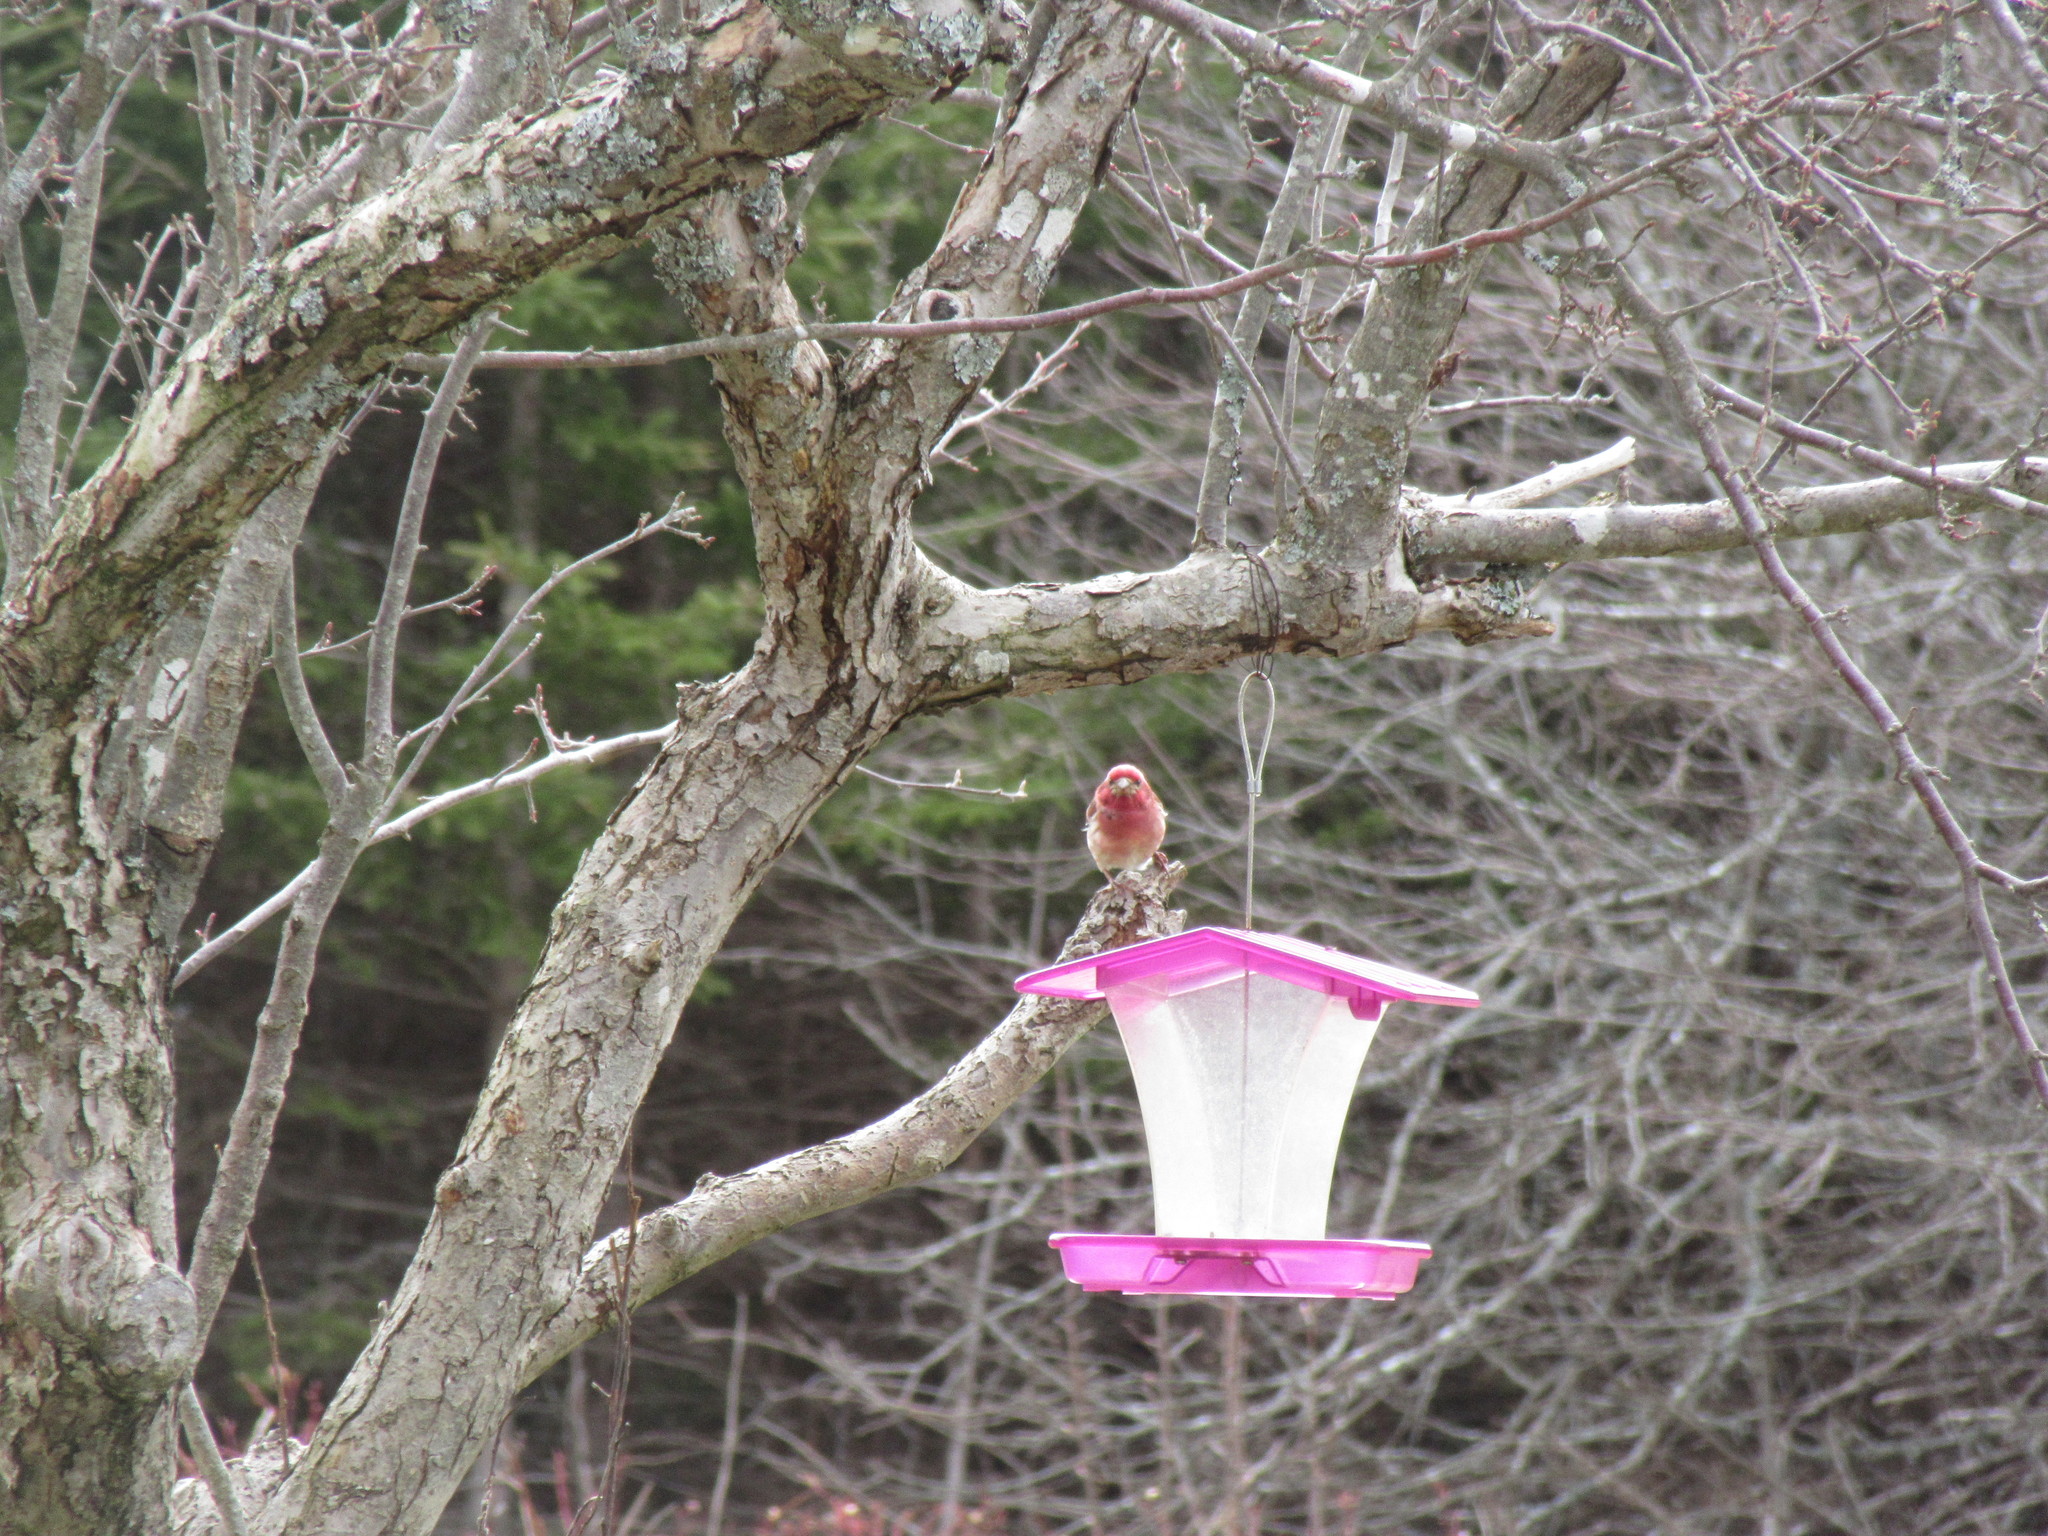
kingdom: Animalia
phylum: Chordata
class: Aves
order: Passeriformes
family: Fringillidae
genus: Haemorhous
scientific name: Haemorhous purpureus
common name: Purple finch
